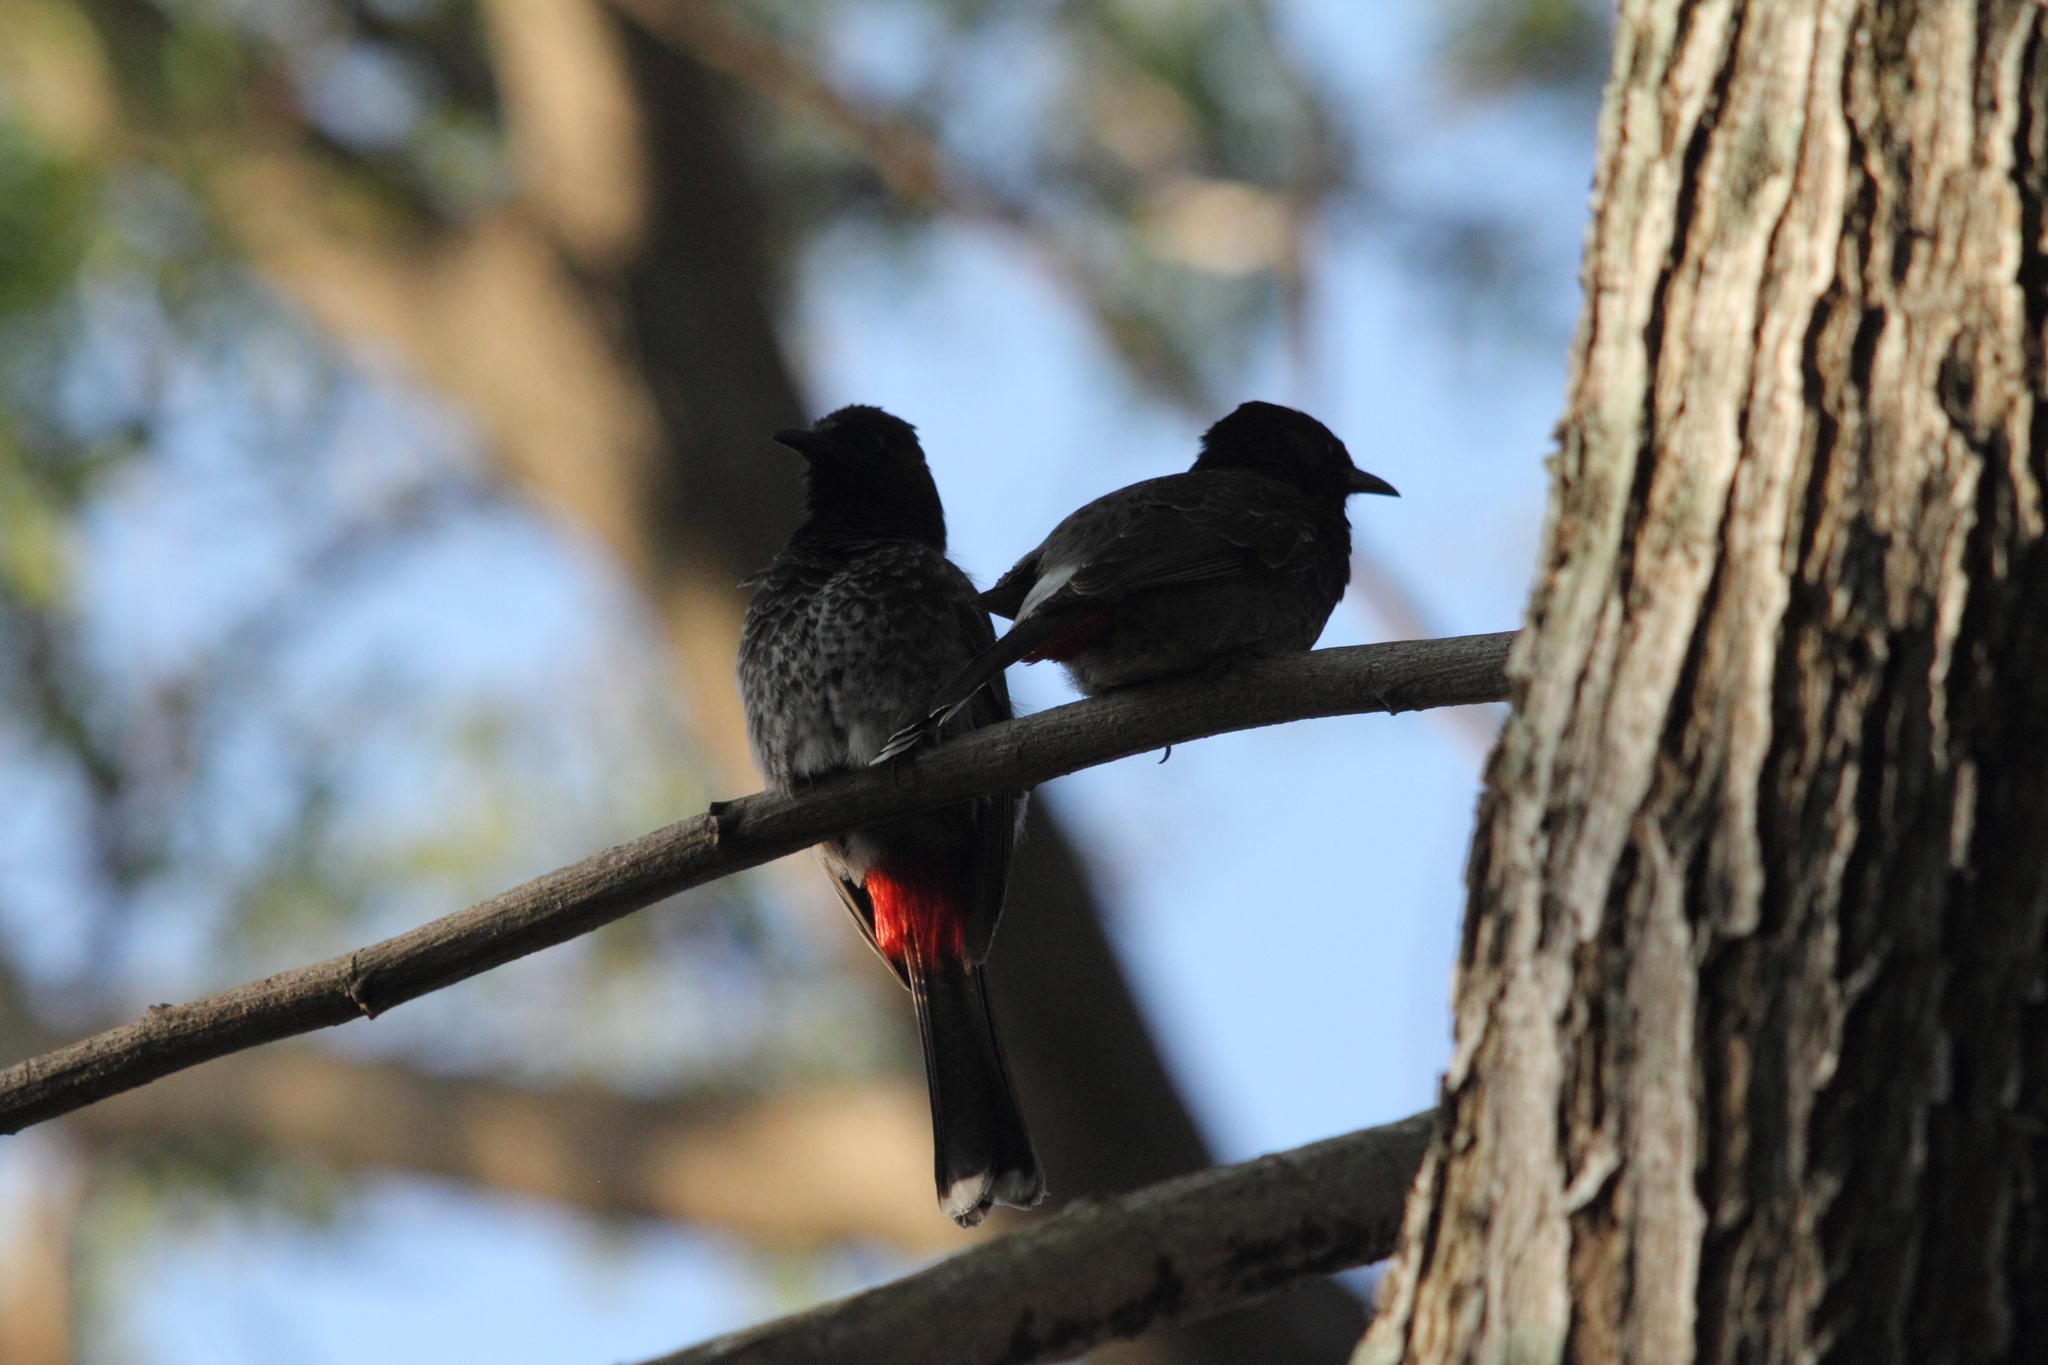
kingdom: Animalia
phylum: Chordata
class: Aves
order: Passeriformes
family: Pycnonotidae
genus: Pycnonotus
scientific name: Pycnonotus cafer
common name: Red-vented bulbul
